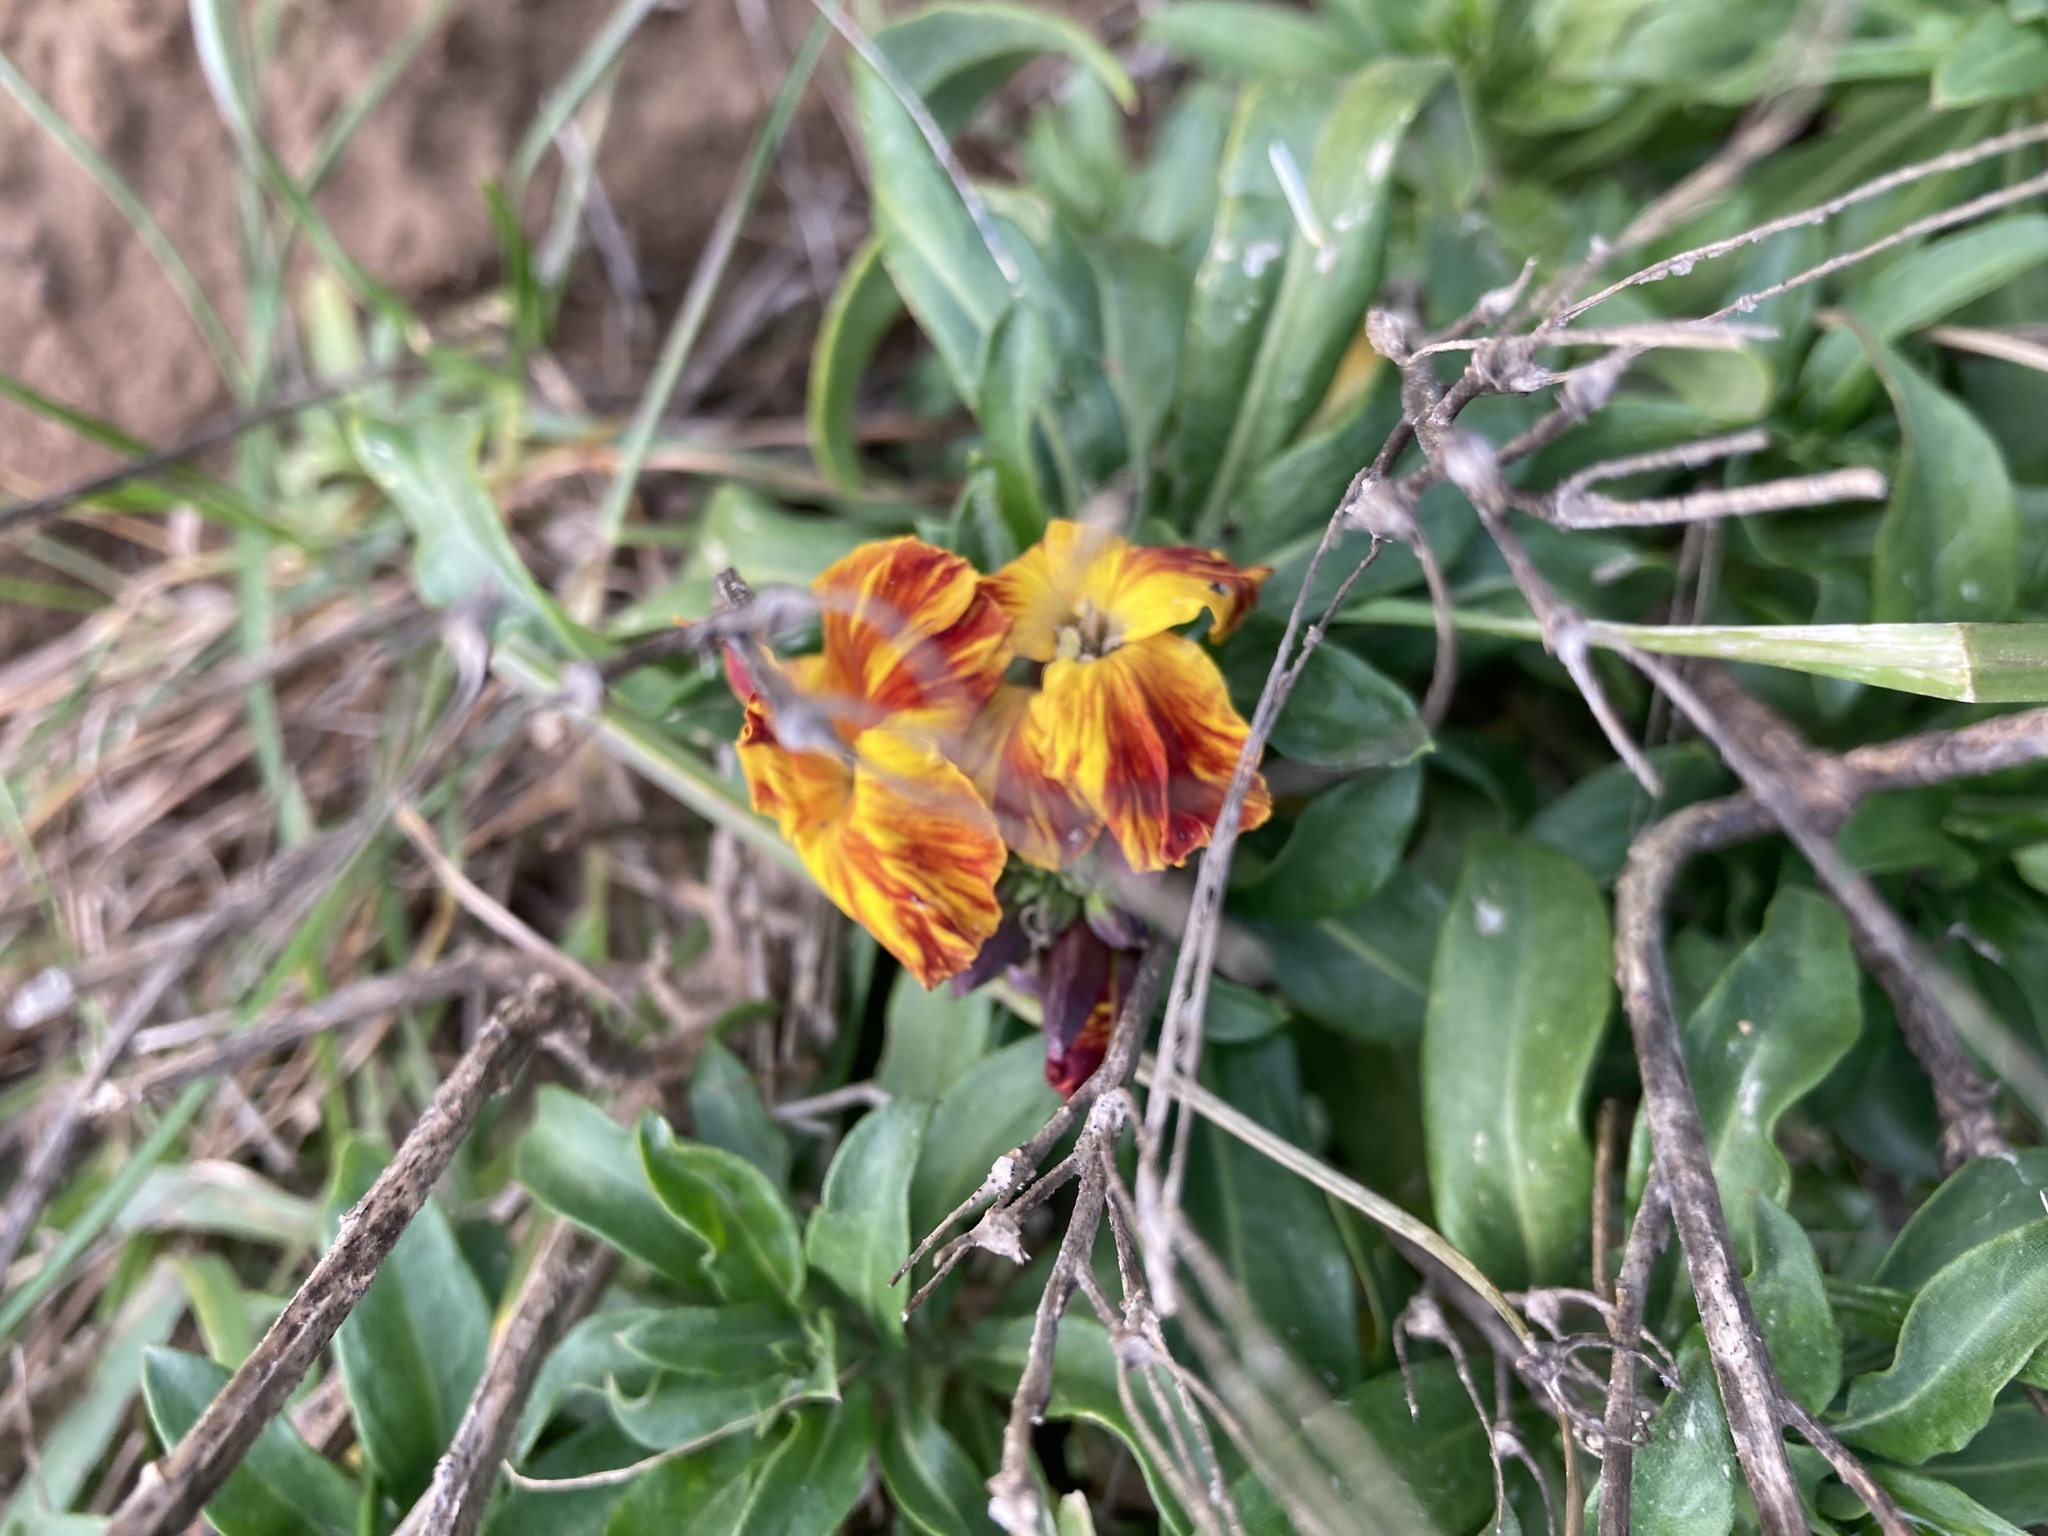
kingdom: Plantae
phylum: Tracheophyta
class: Magnoliopsida
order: Brassicales
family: Brassicaceae
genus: Erysimum
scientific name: Erysimum cheiri
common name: Wallflower
